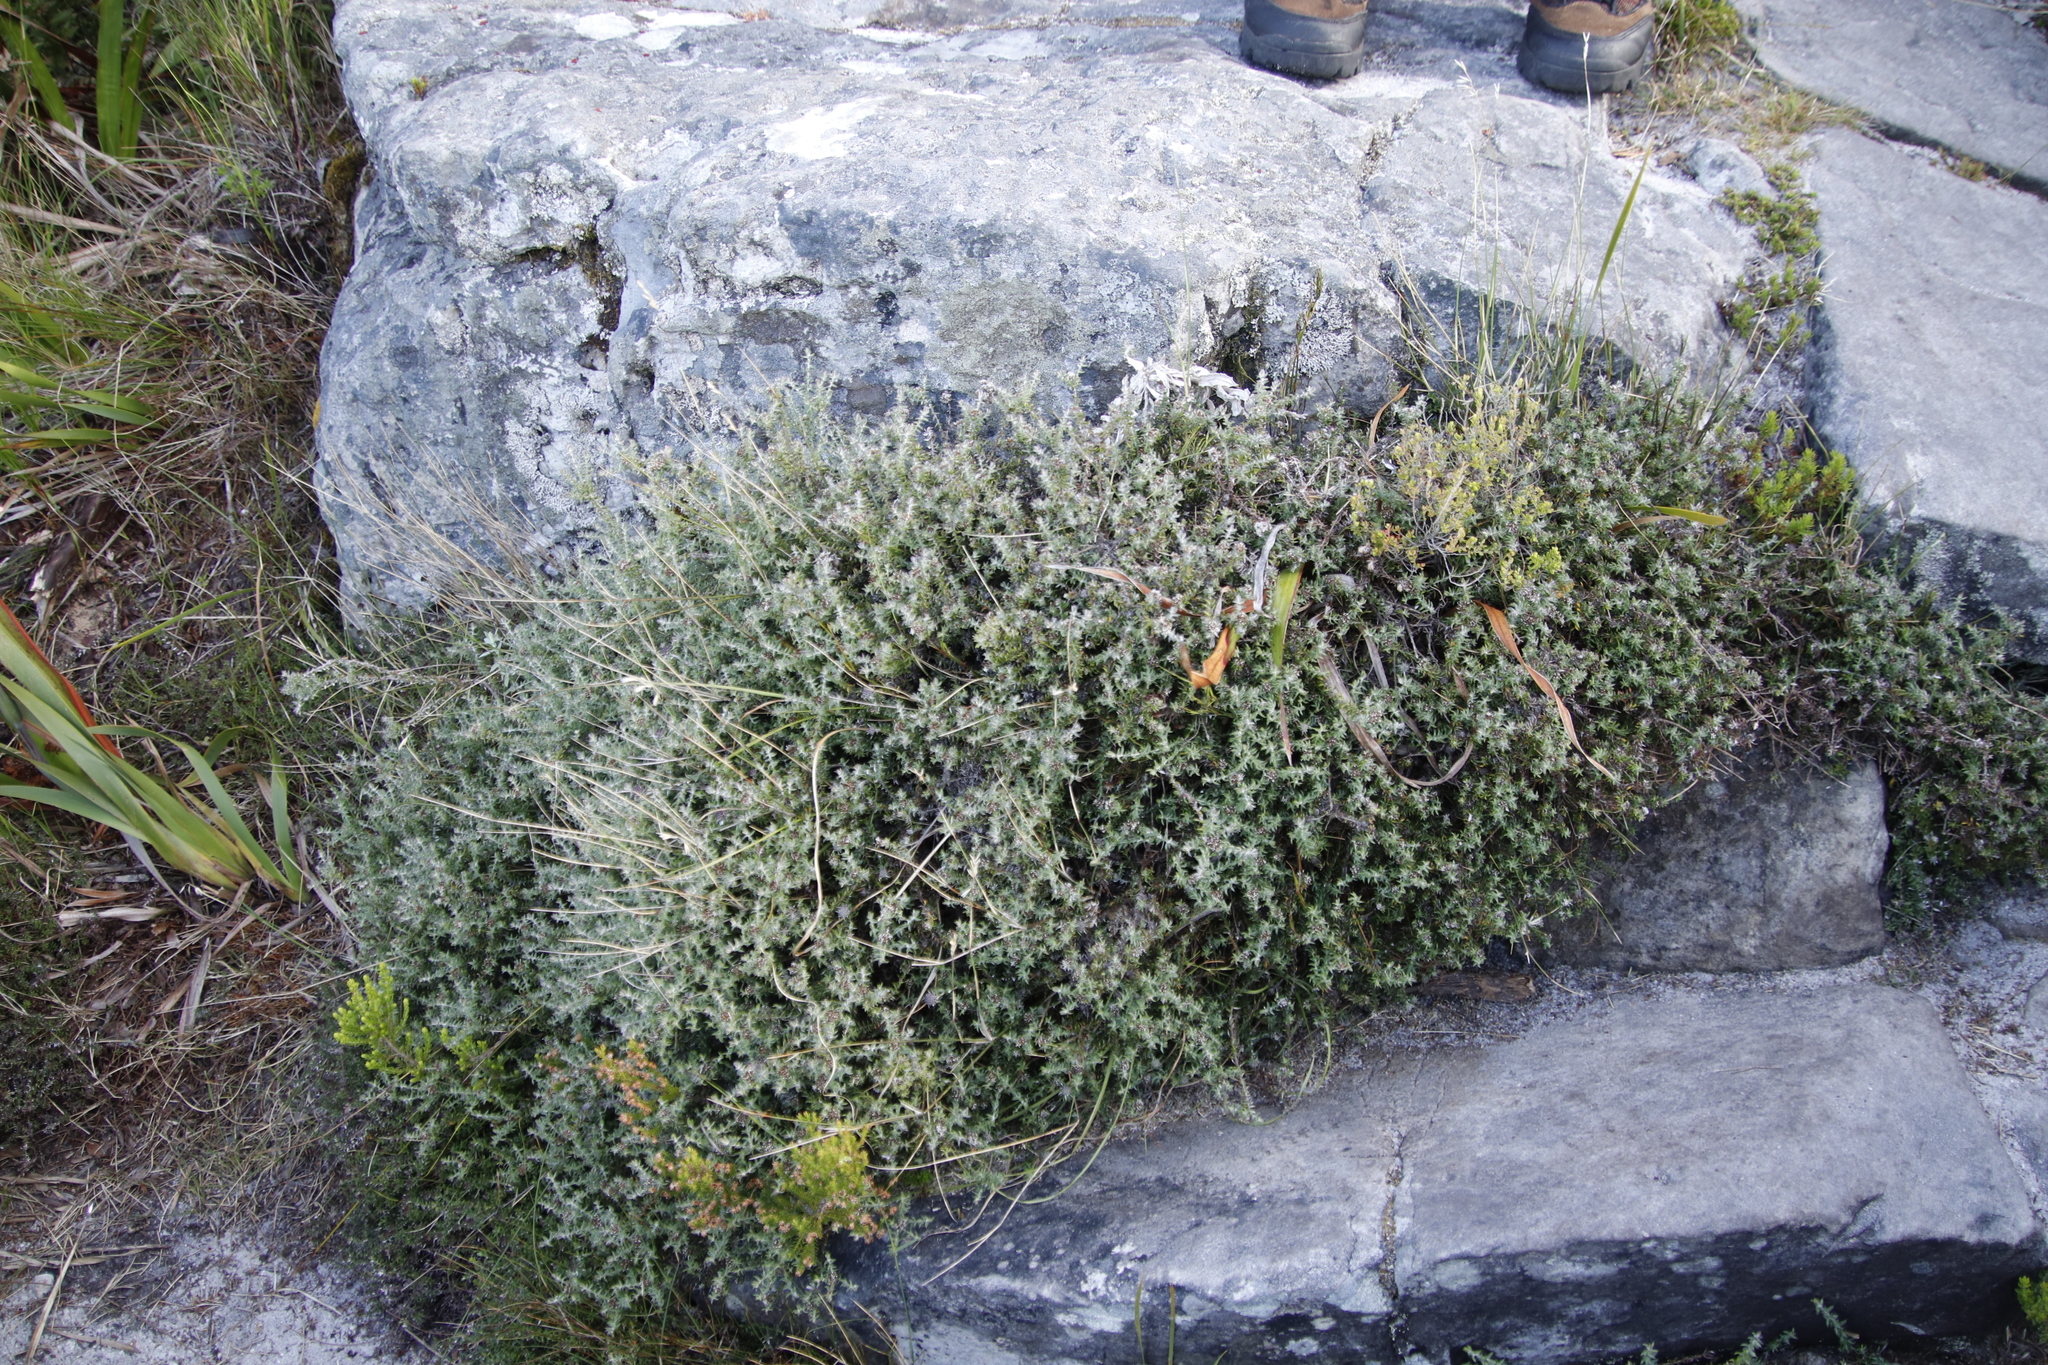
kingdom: Plantae
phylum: Tracheophyta
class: Magnoliopsida
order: Asterales
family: Asteraceae
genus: Metalasia
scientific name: Metalasia divergens
